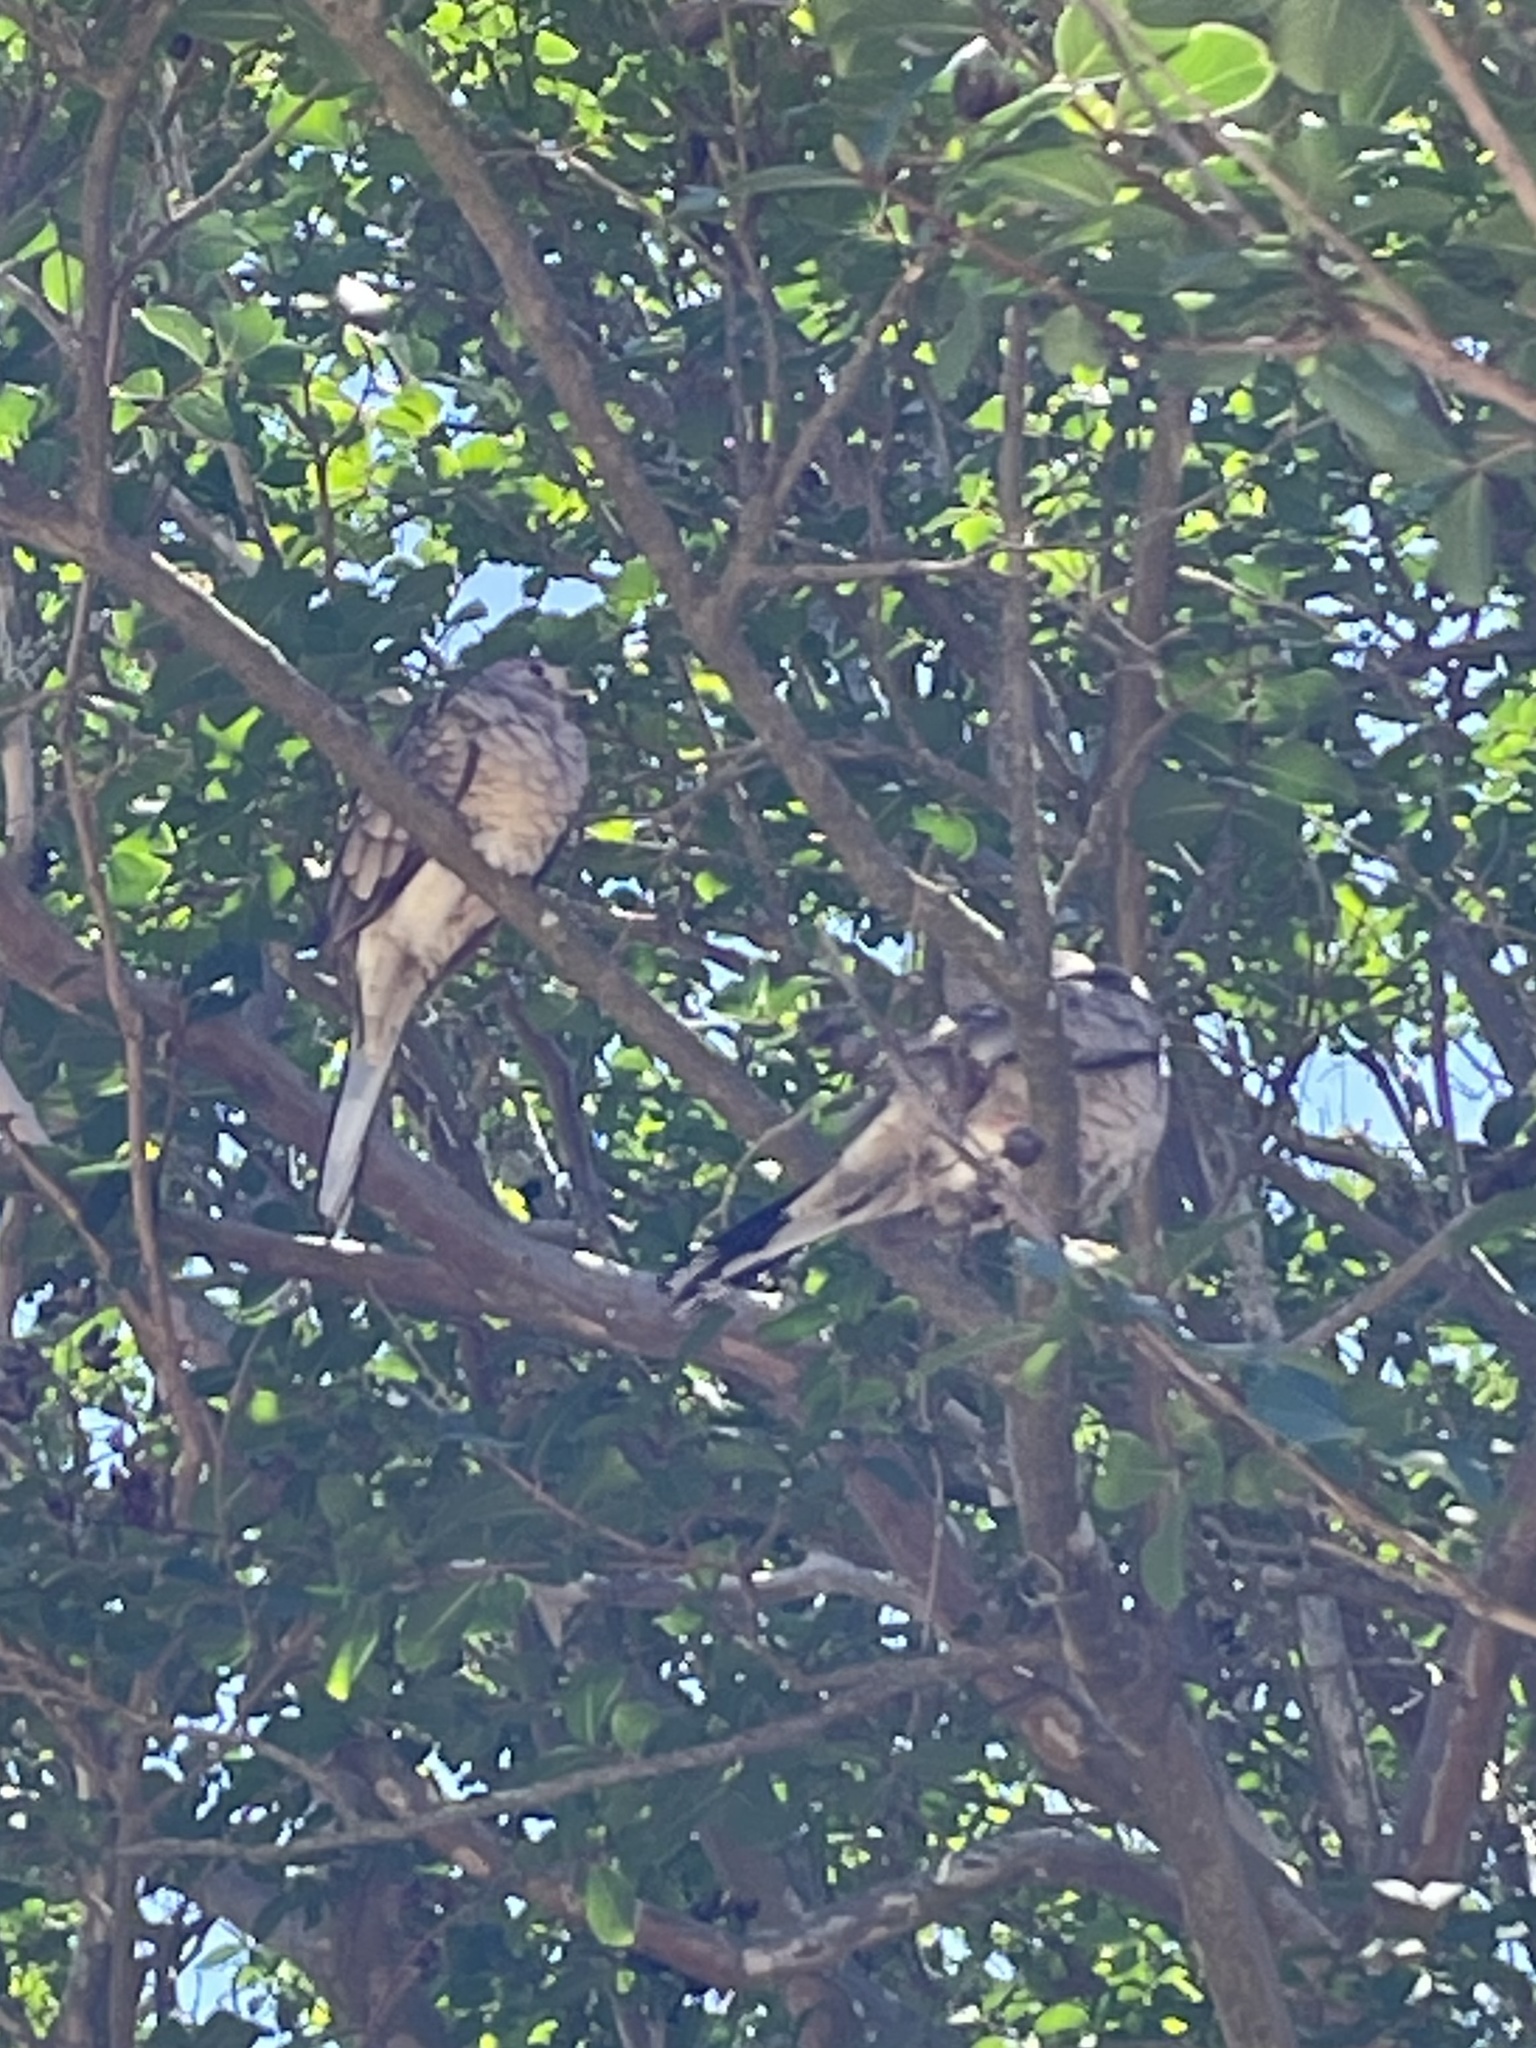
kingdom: Animalia
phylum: Chordata
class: Aves
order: Columbiformes
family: Columbidae
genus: Columbina
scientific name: Columbina inca
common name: Inca dove
